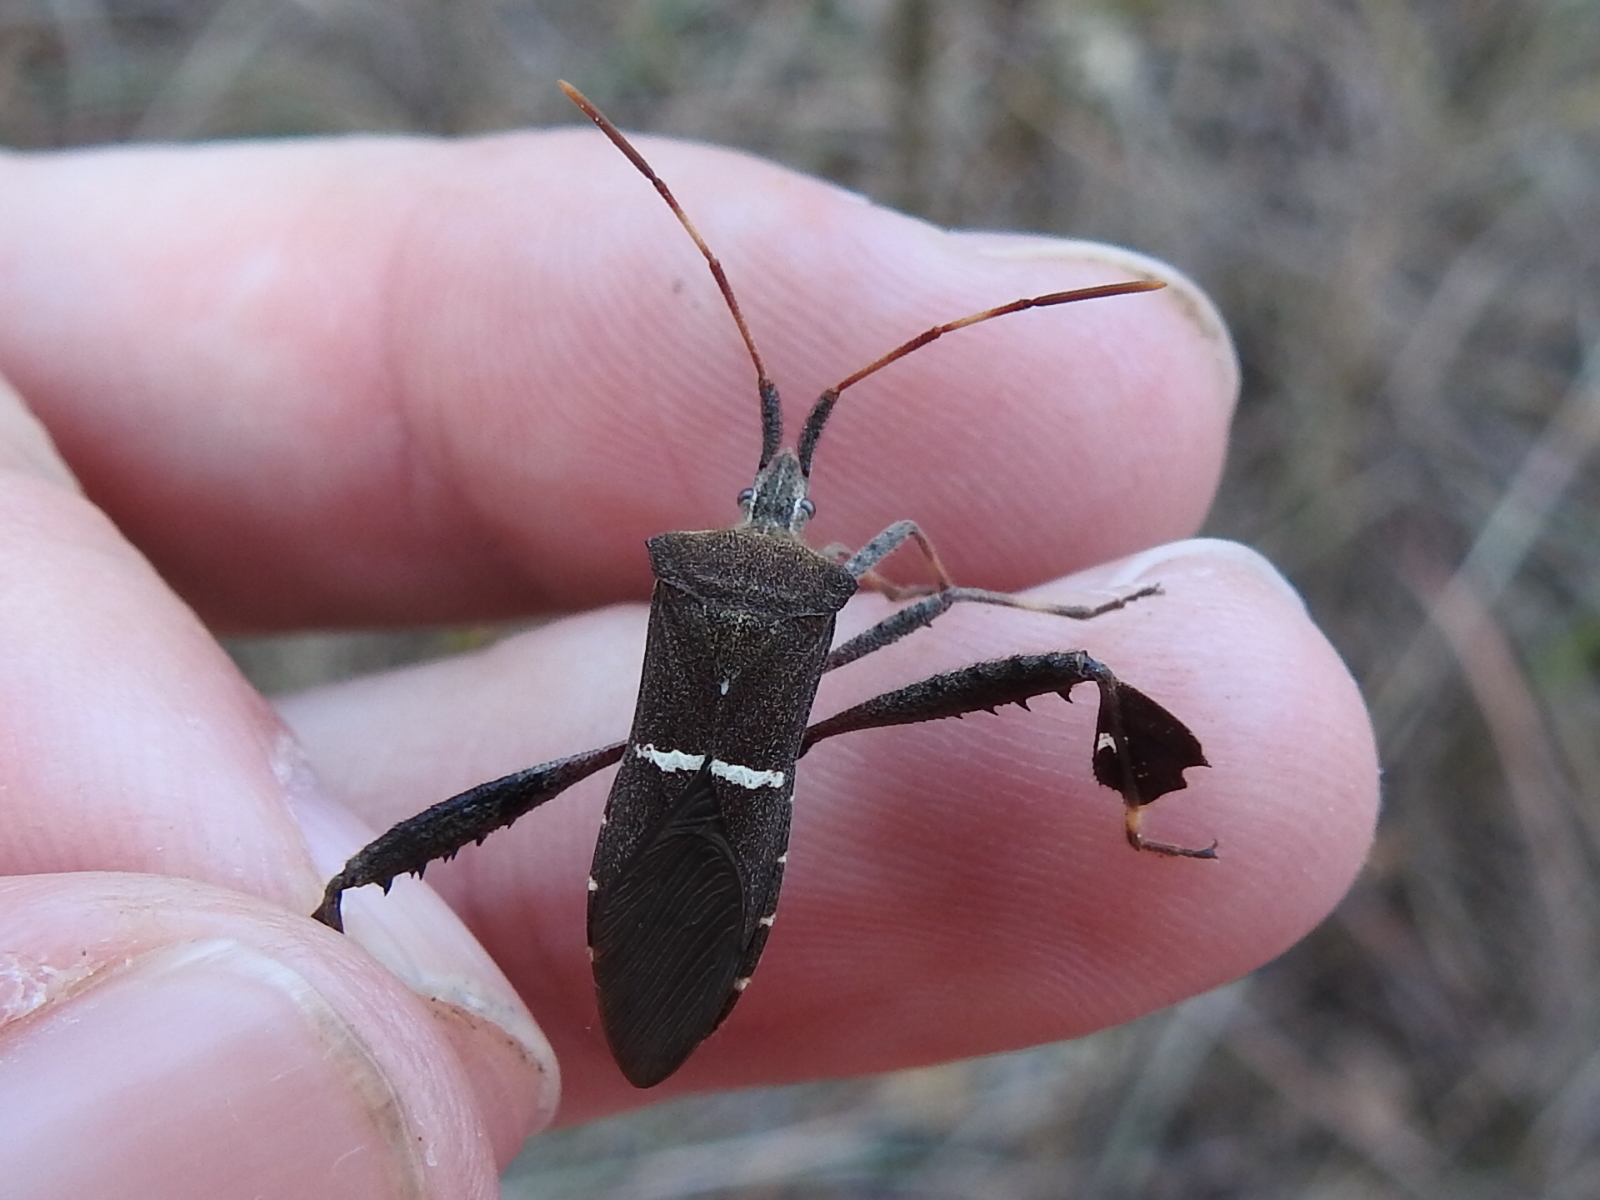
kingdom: Animalia
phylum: Arthropoda
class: Insecta
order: Hemiptera
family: Coreidae
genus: Leptoglossus
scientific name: Leptoglossus phyllopus
